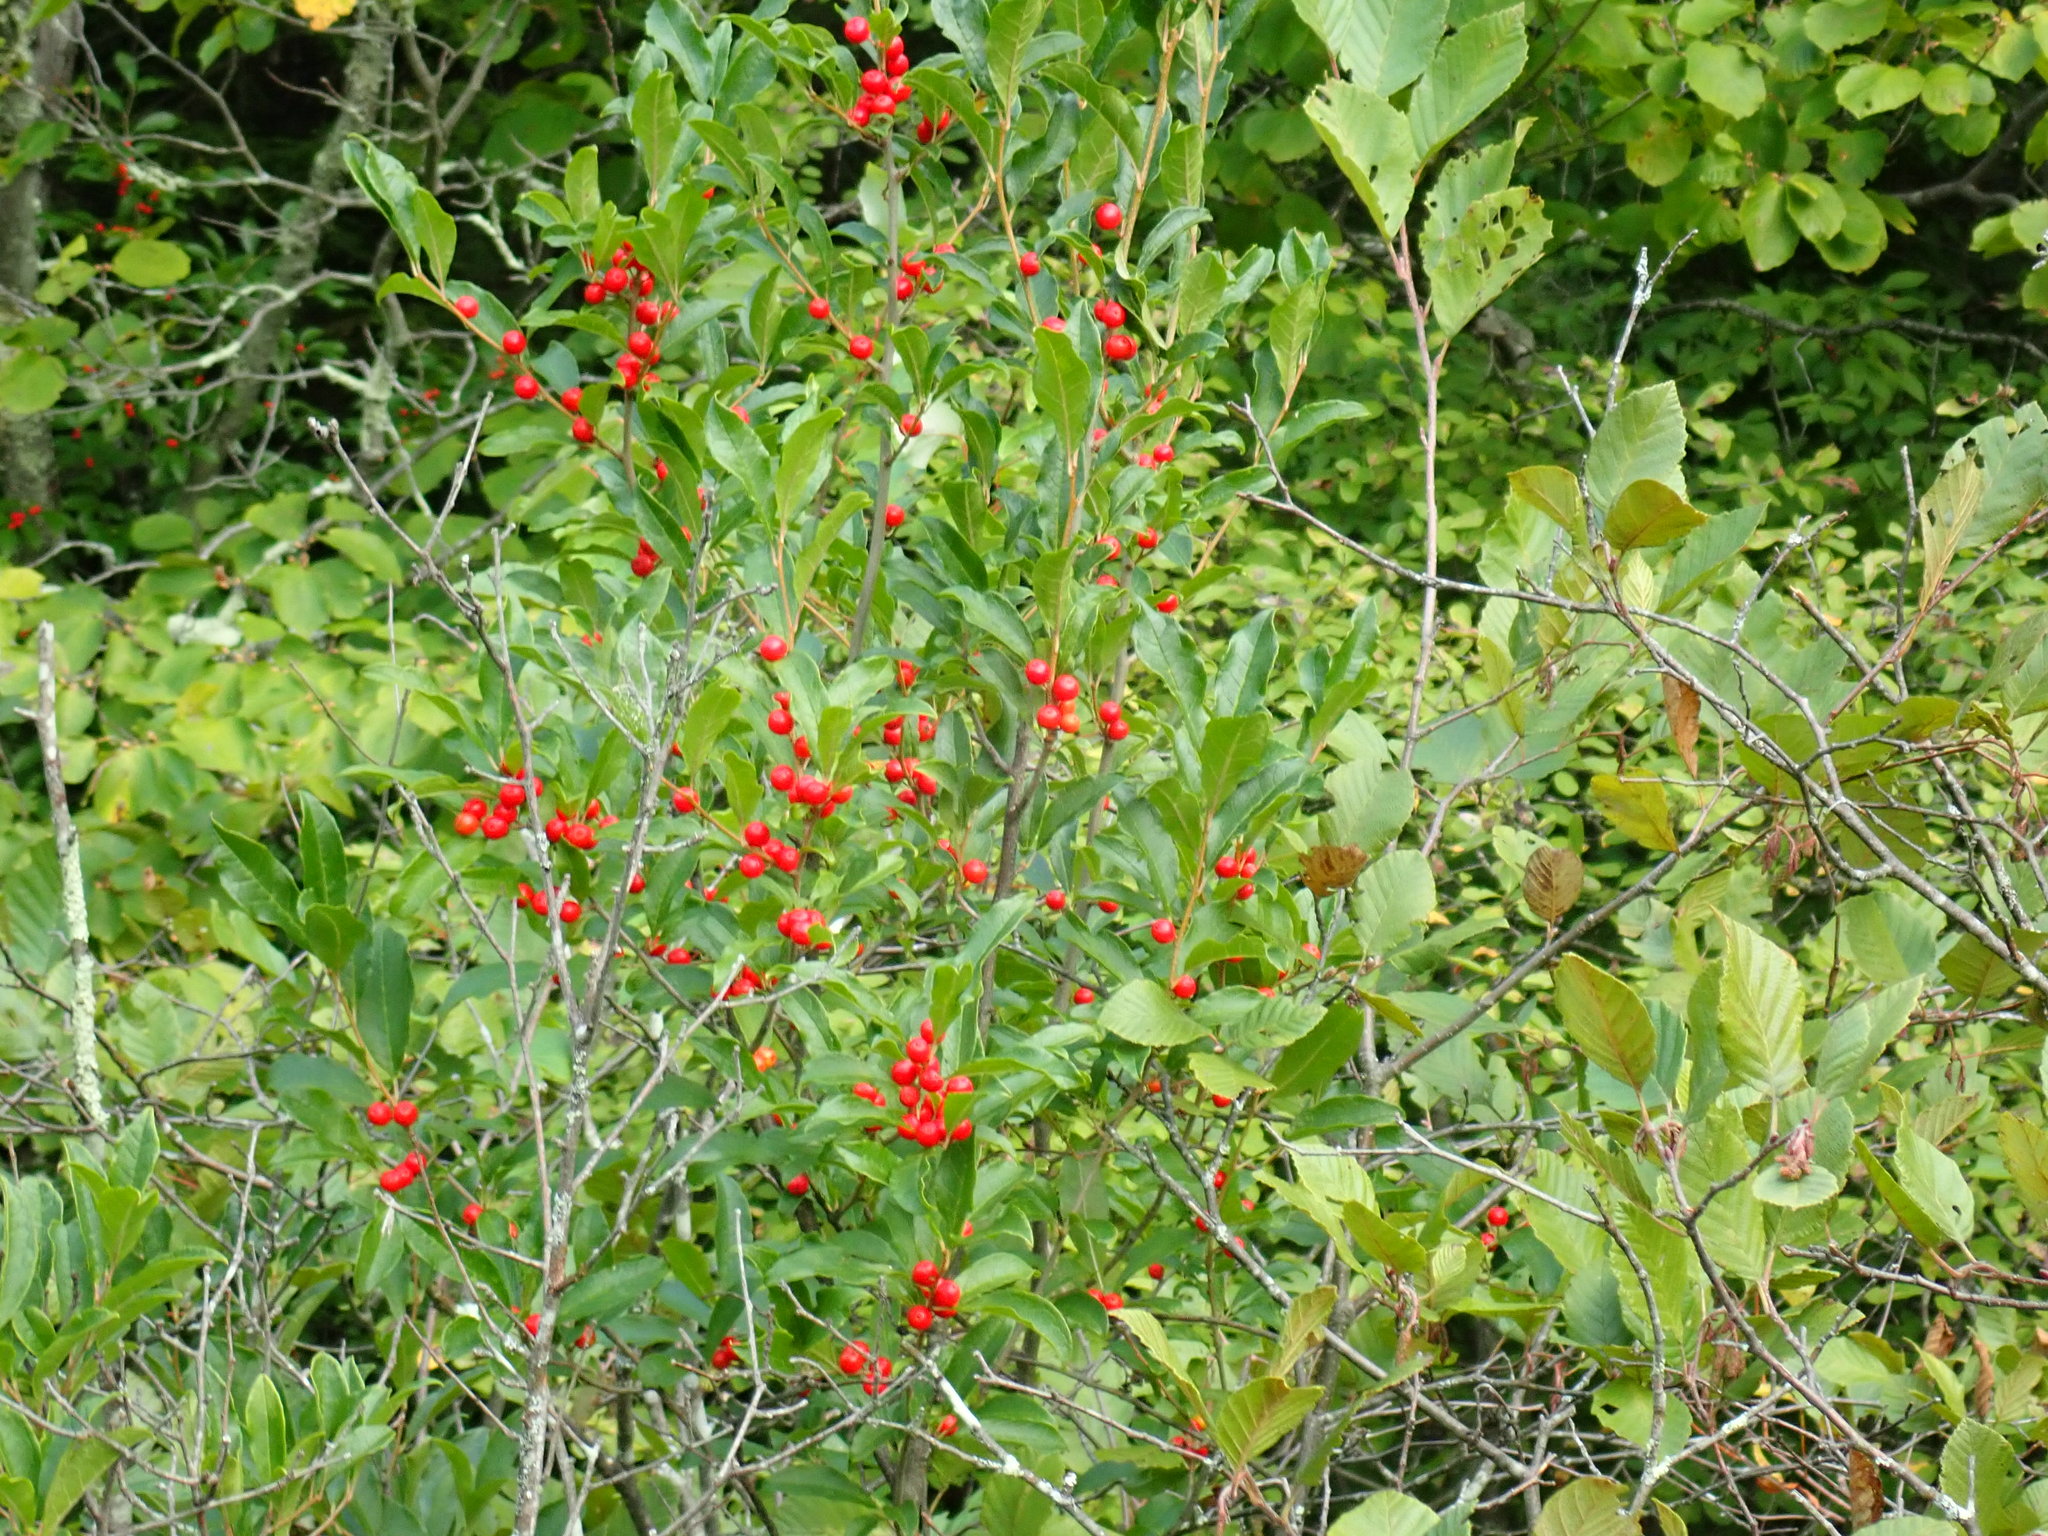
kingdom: Plantae
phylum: Tracheophyta
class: Magnoliopsida
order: Aquifoliales
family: Aquifoliaceae
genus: Ilex
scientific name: Ilex verticillata
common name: Virginia winterberry
